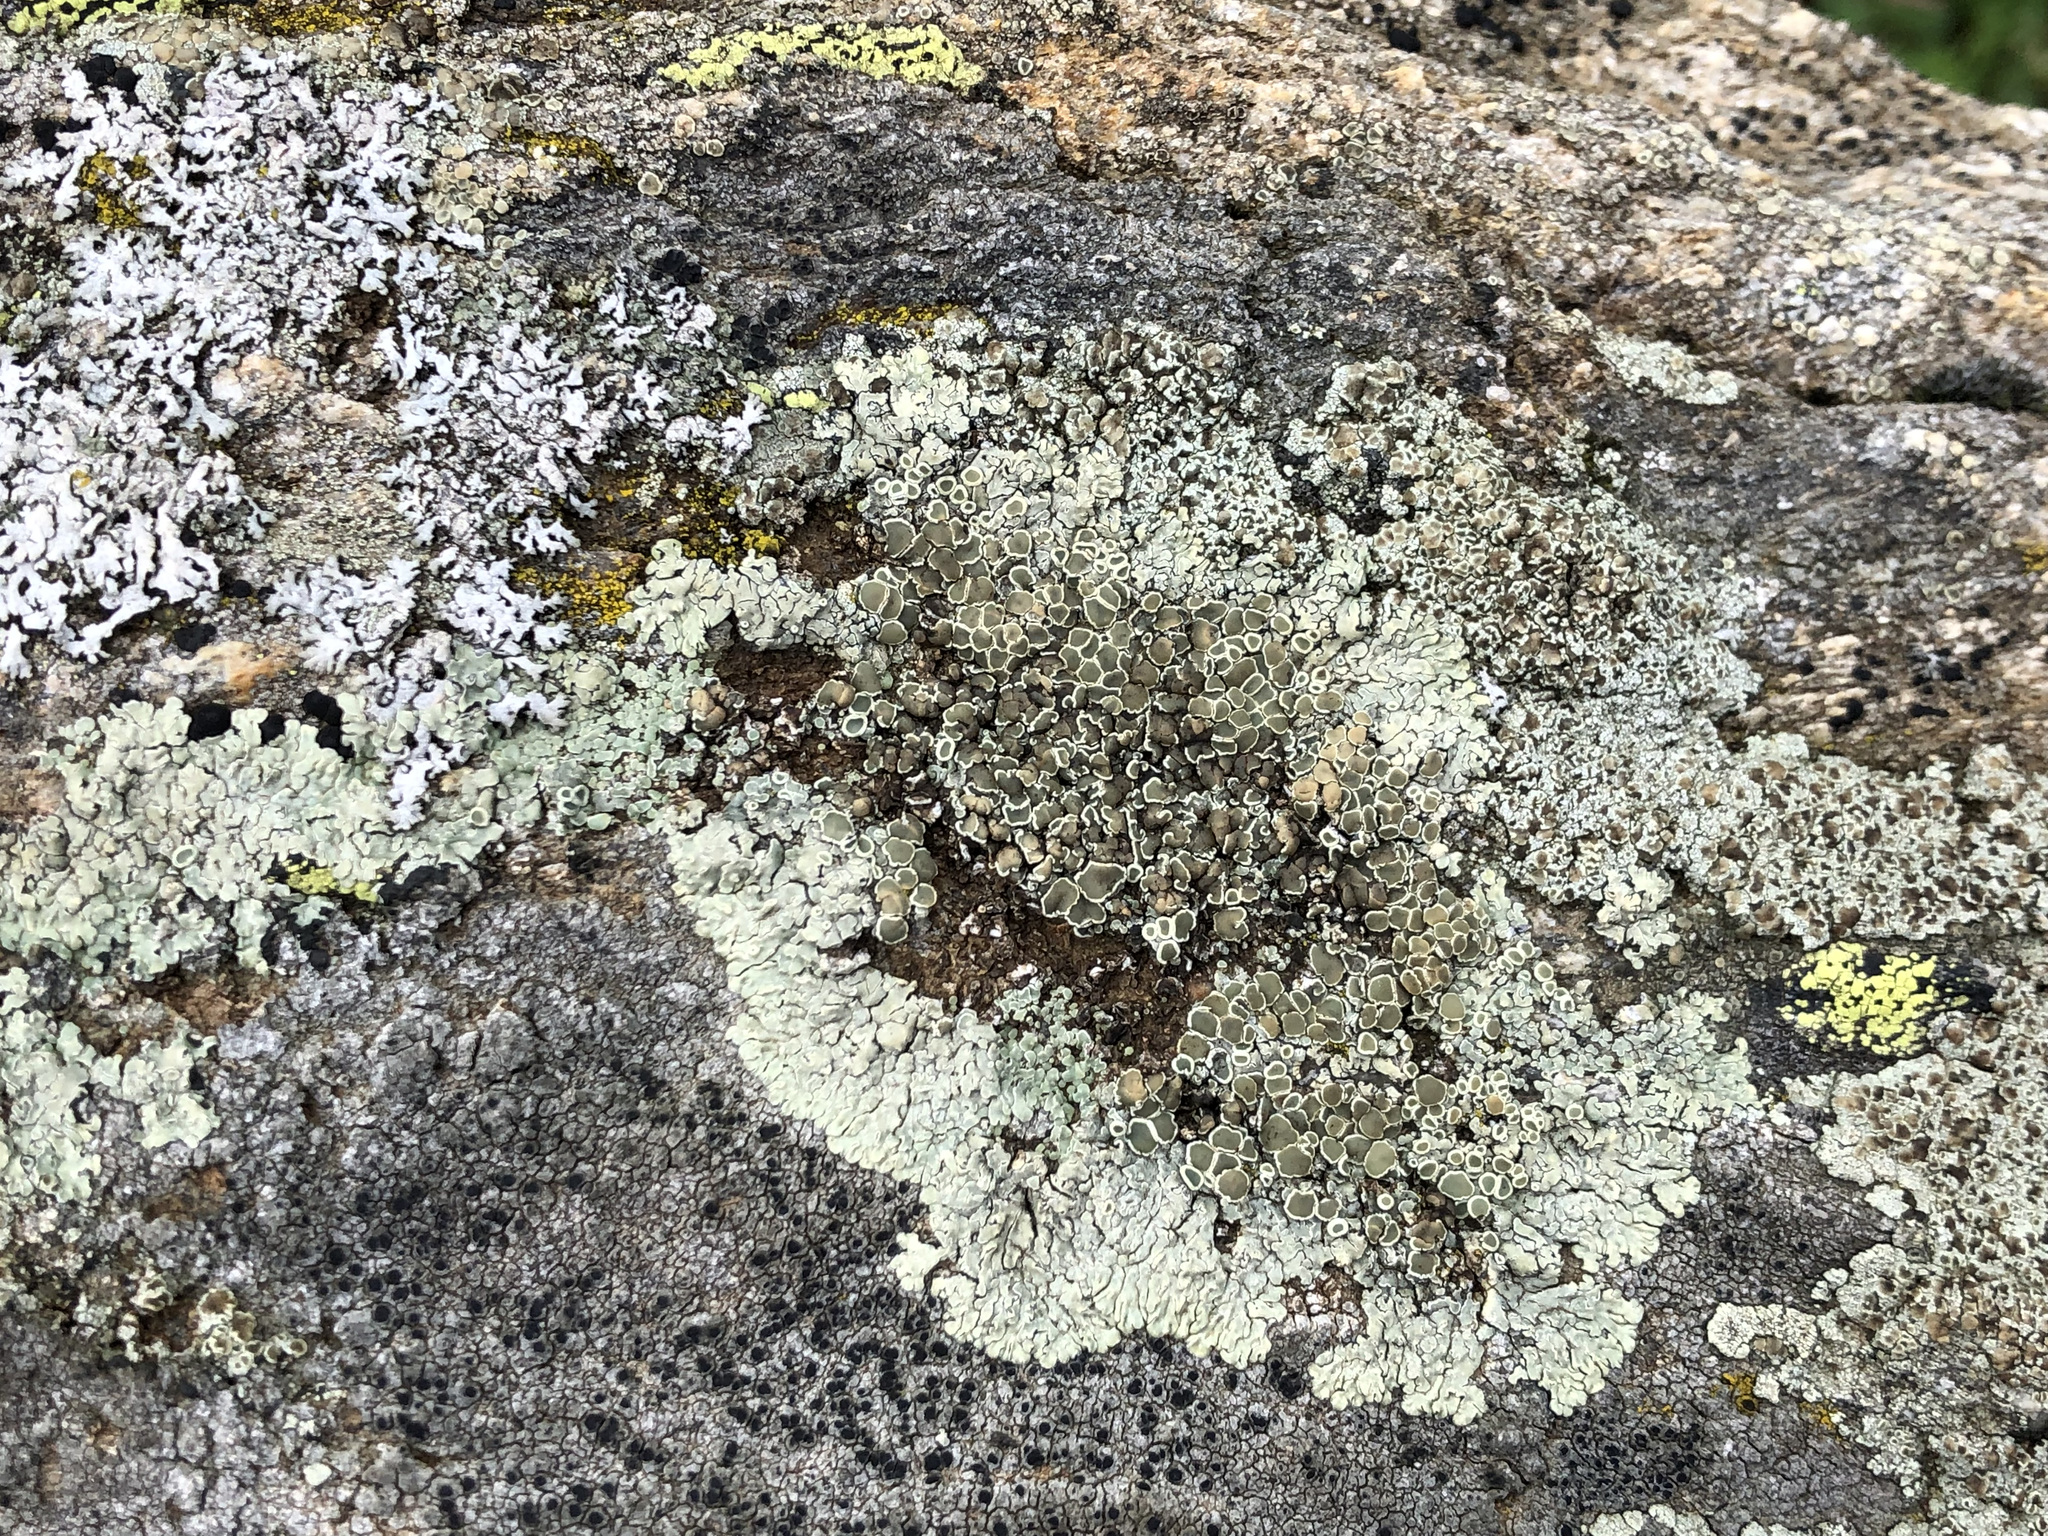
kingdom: Fungi
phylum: Ascomycota
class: Lecanoromycetes
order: Lecanorales
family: Lecanoraceae
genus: Protoparmeliopsis
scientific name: Protoparmeliopsis muralis
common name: Stonewall rim lichen
